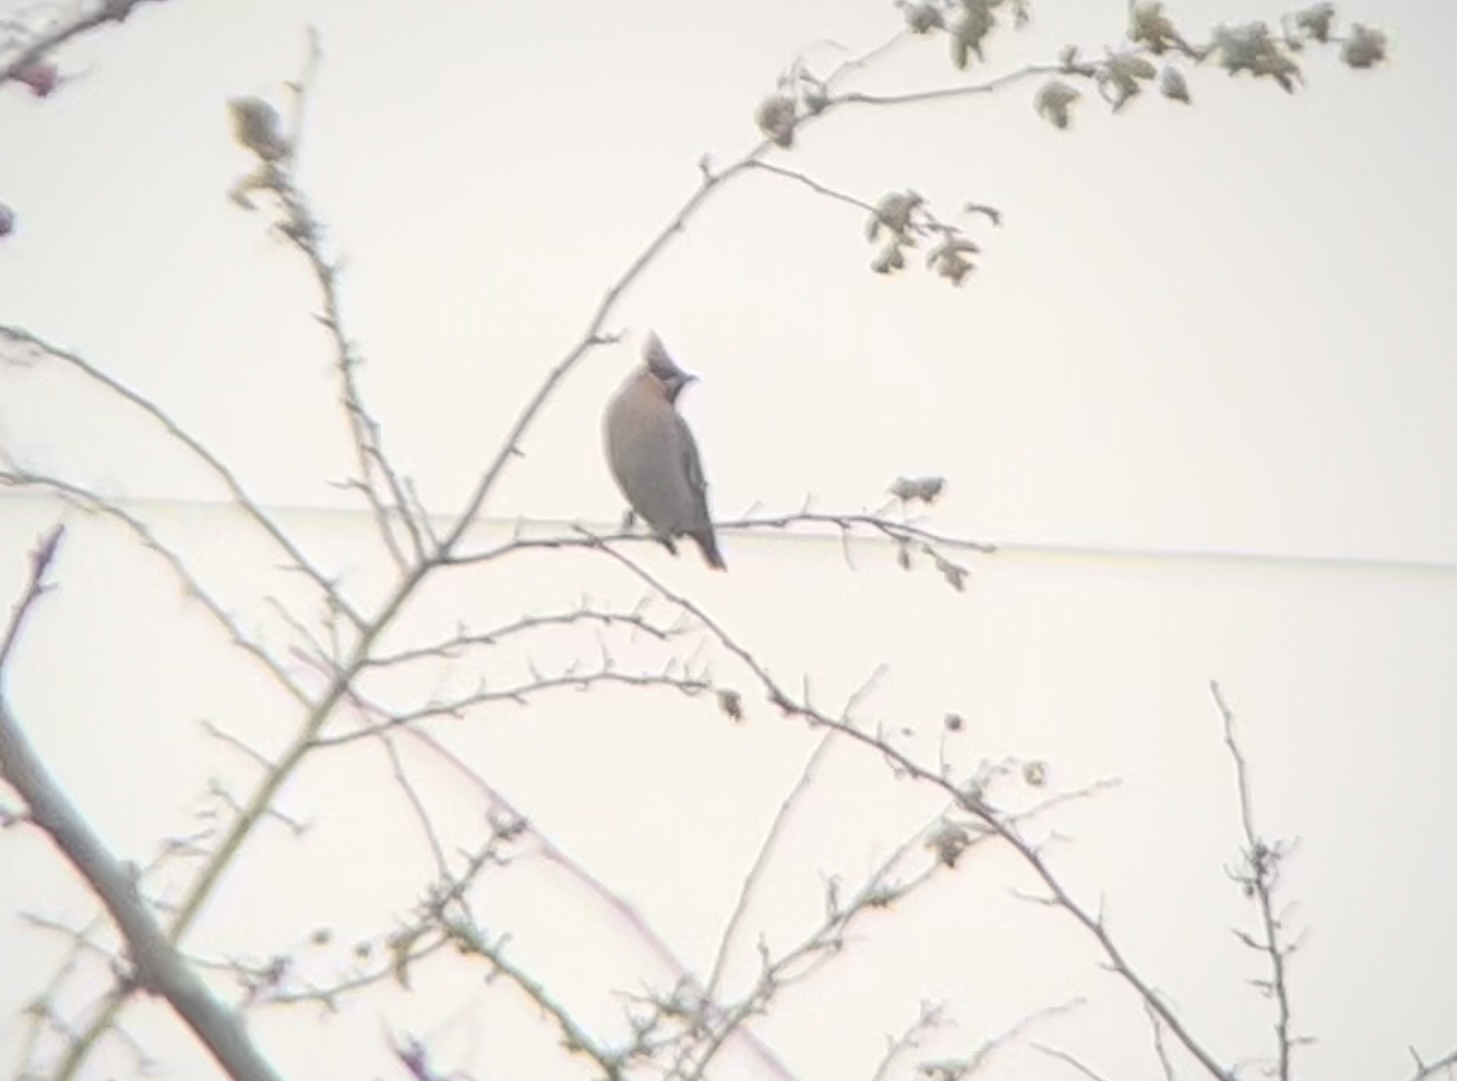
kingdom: Animalia
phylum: Chordata
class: Aves
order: Passeriformes
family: Bombycillidae
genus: Bombycilla
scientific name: Bombycilla garrulus
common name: Bohemian waxwing
